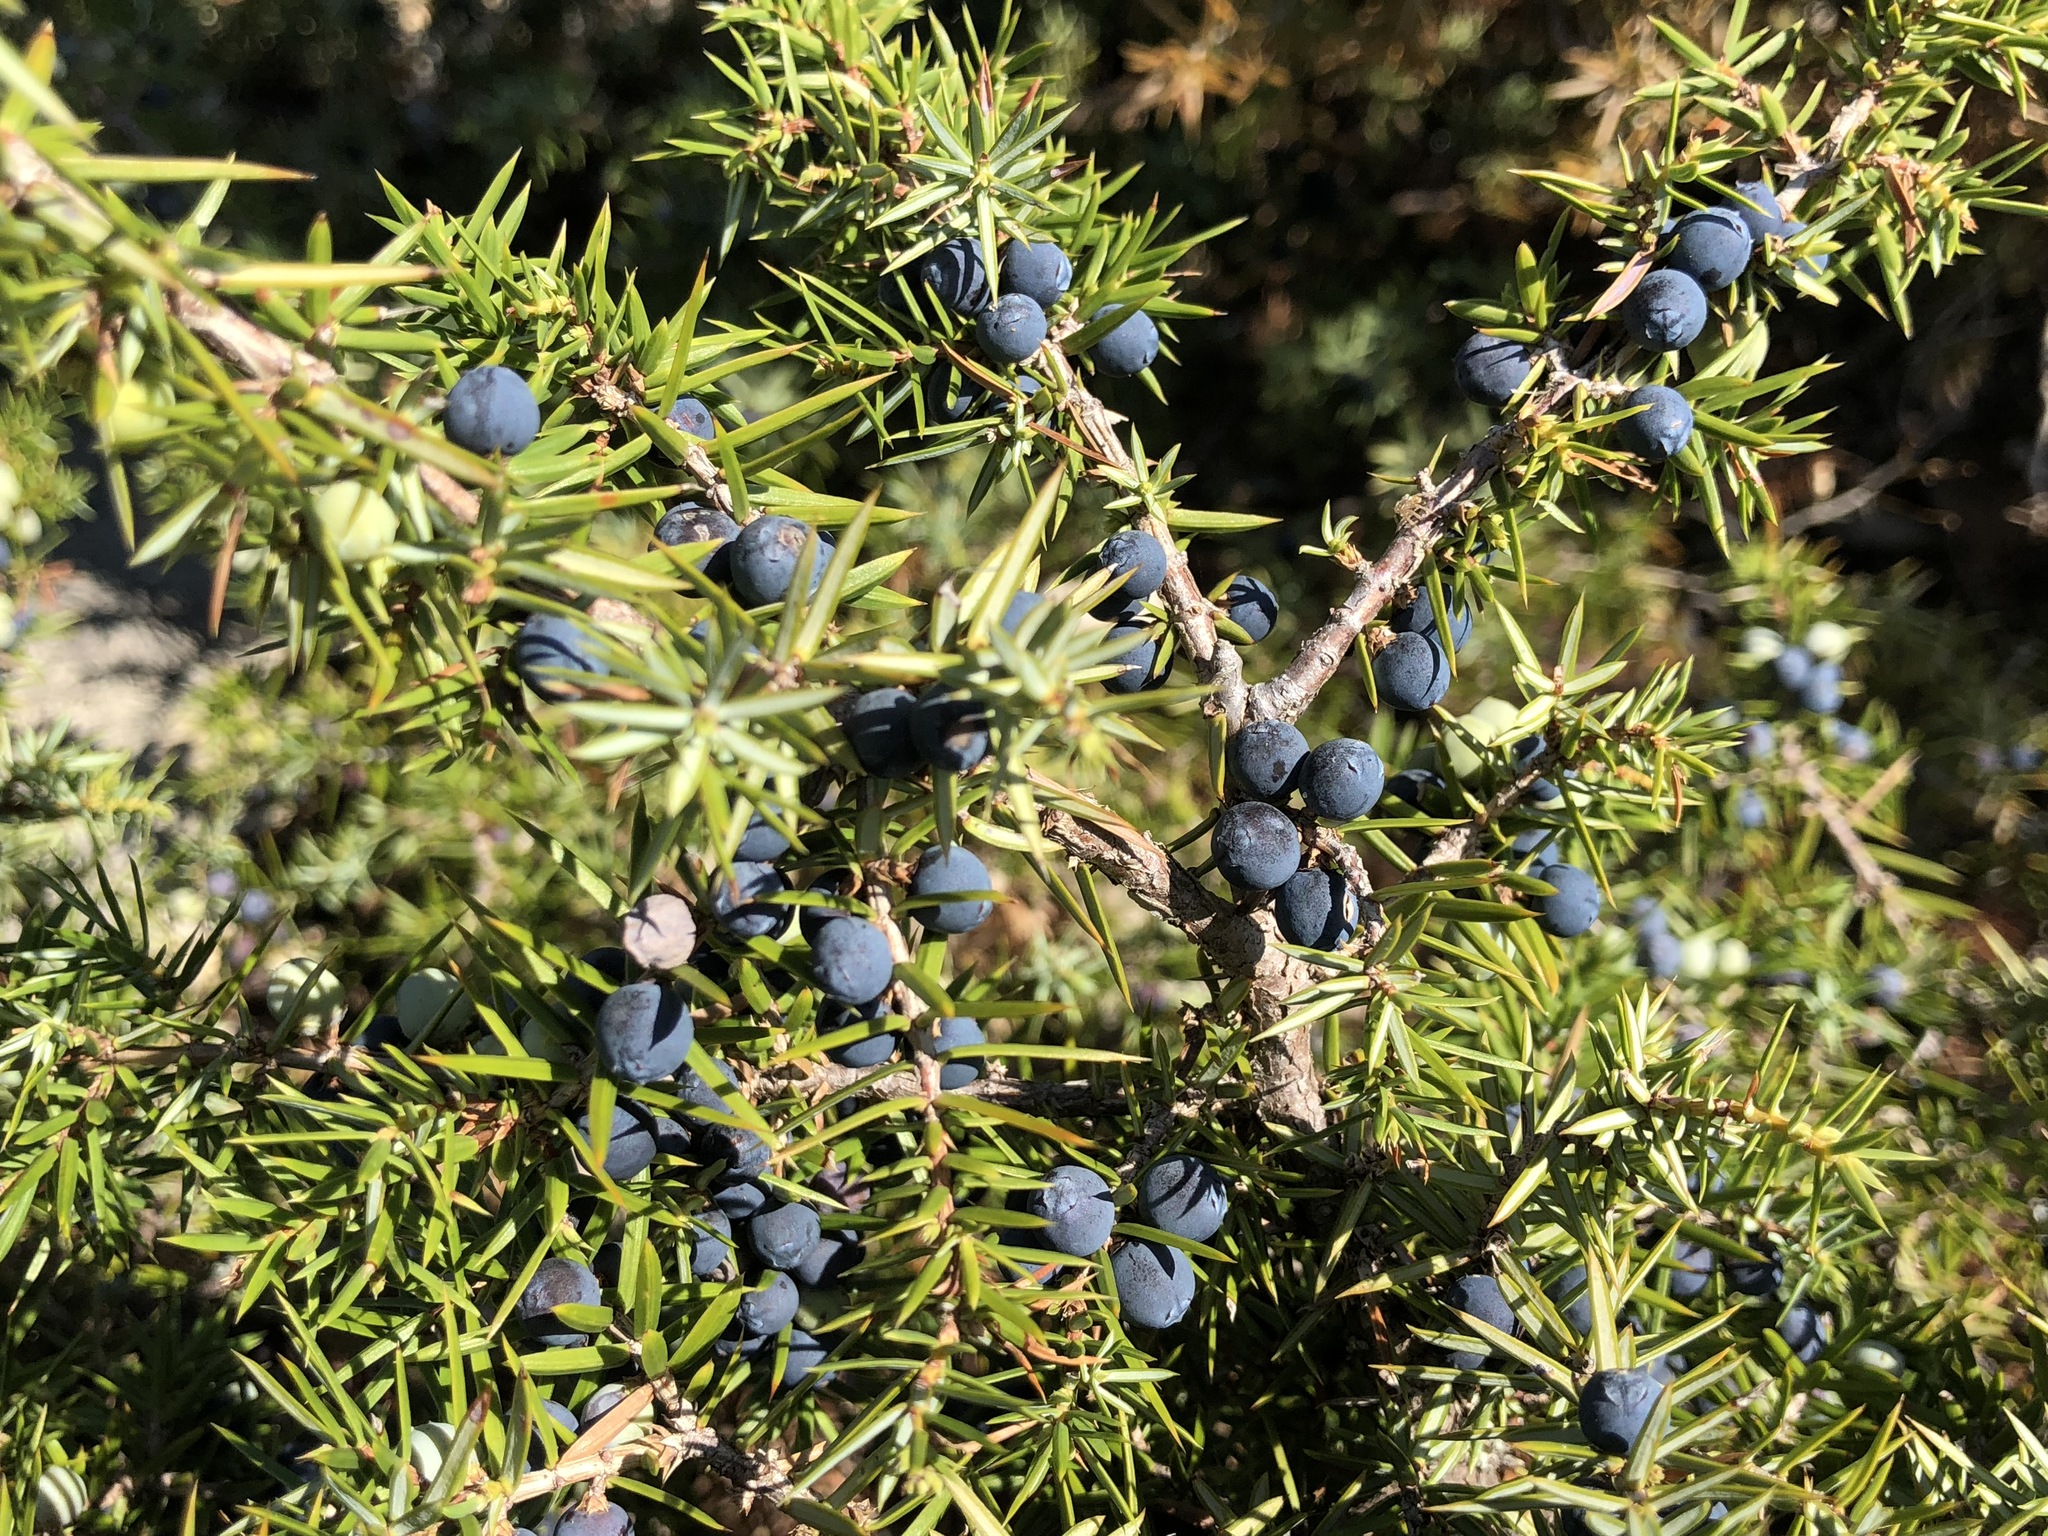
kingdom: Plantae
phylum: Tracheophyta
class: Pinopsida
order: Pinales
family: Cupressaceae
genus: Juniperus
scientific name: Juniperus communis
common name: Common juniper
